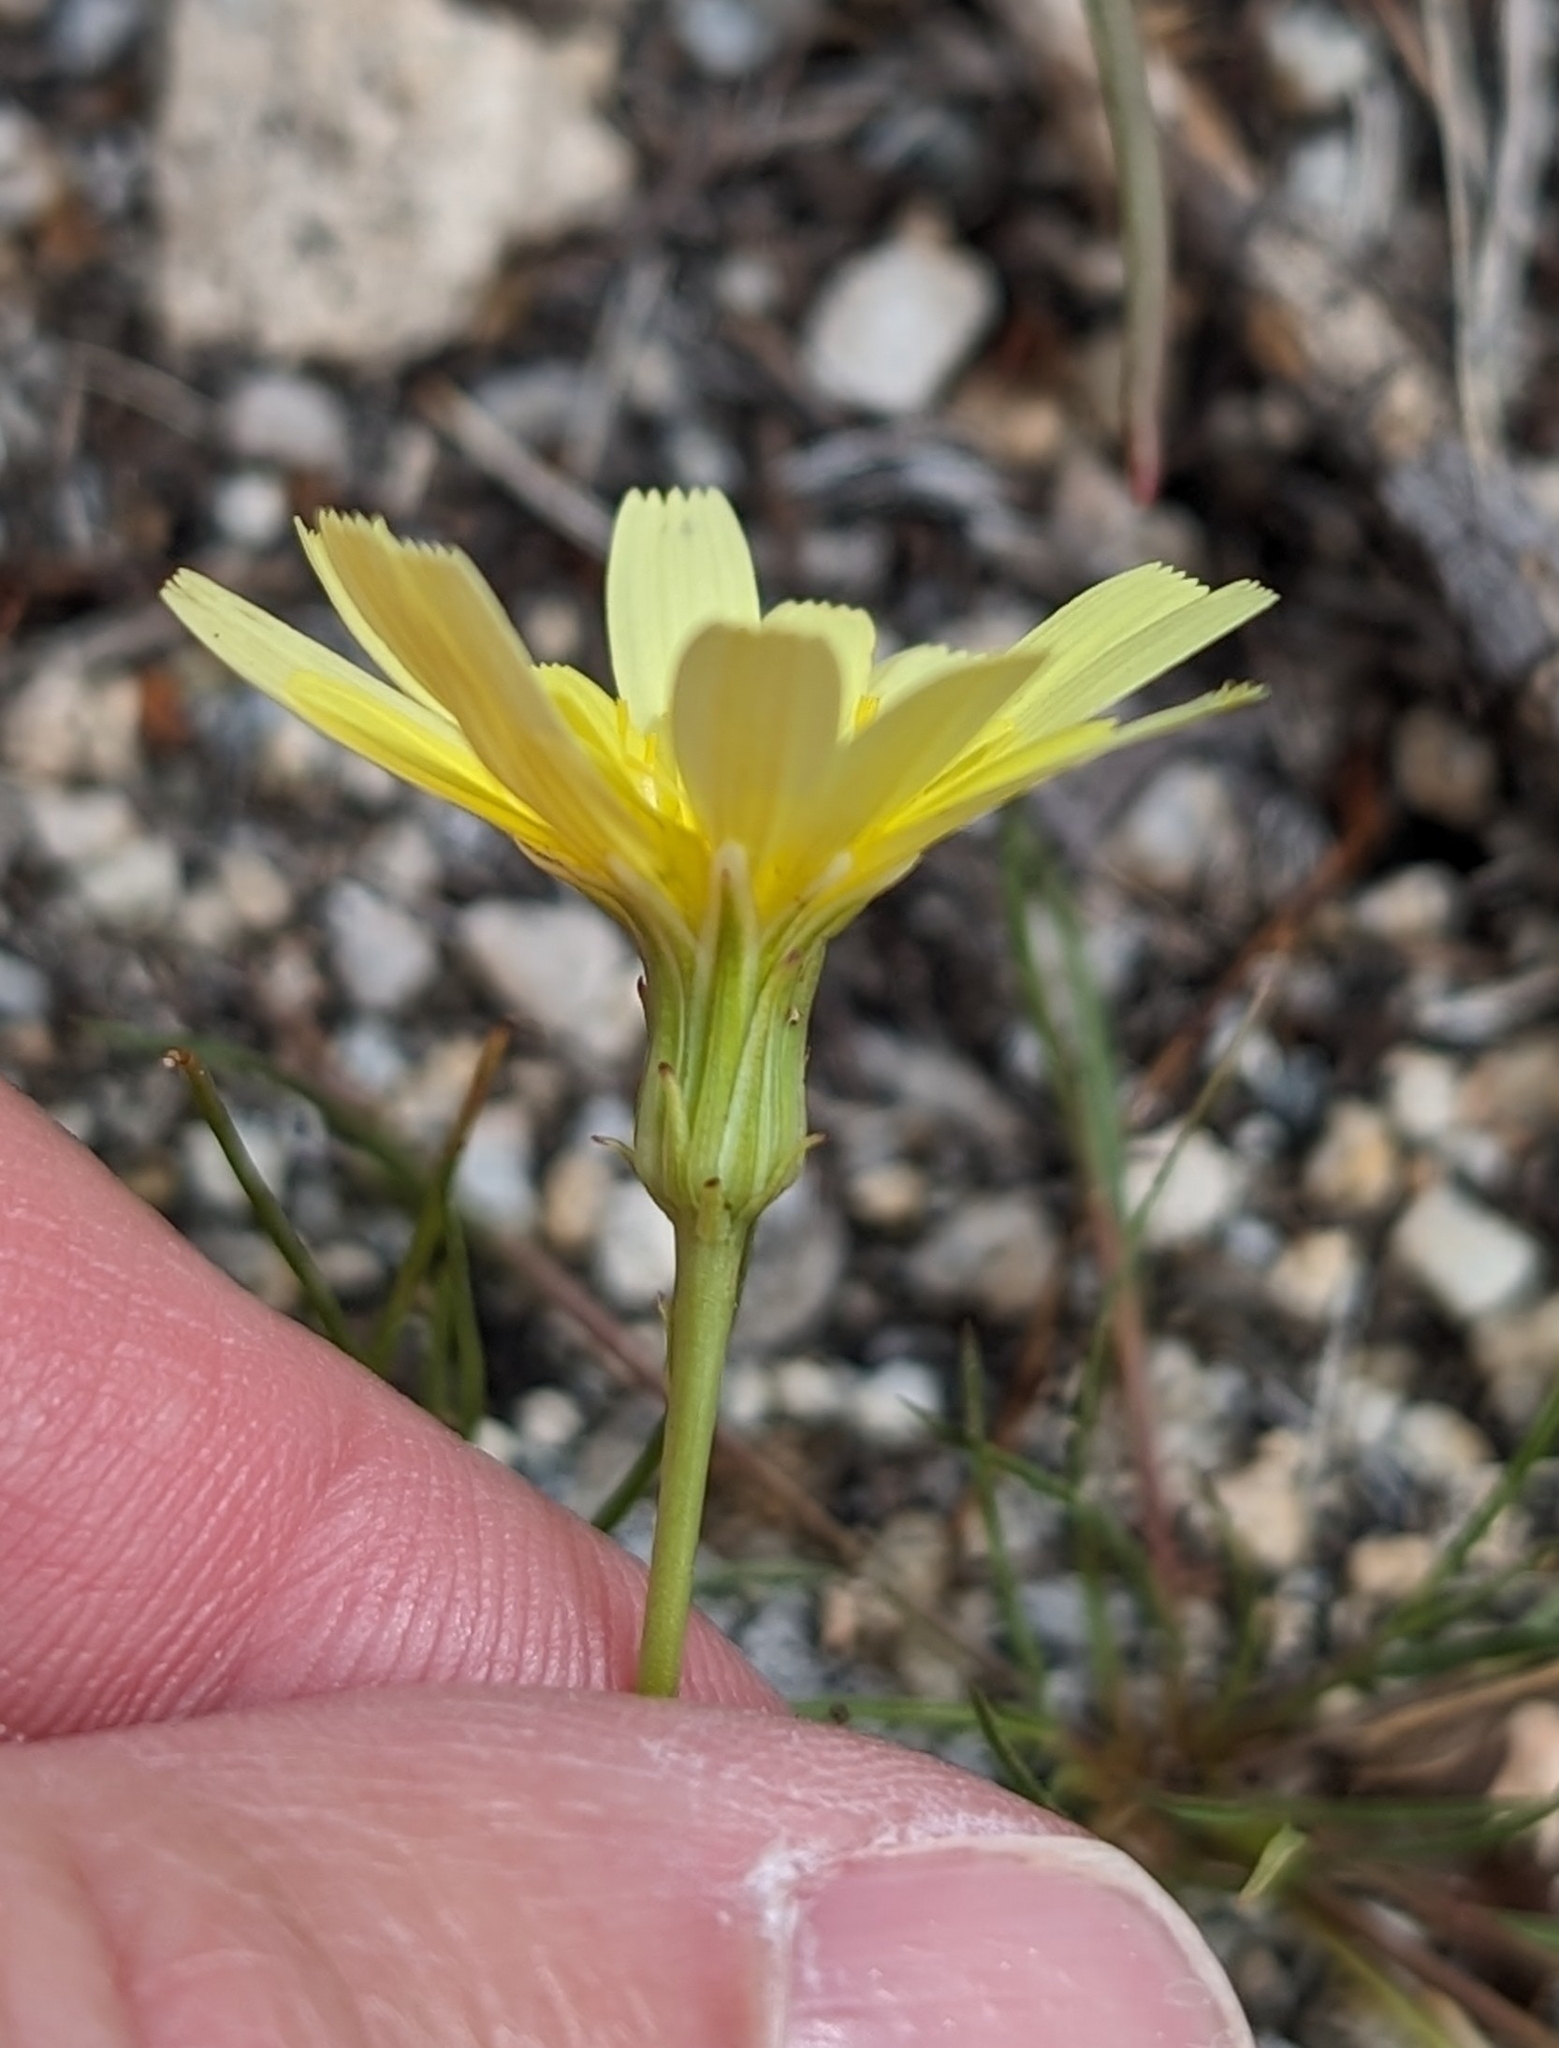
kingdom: Plantae
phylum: Tracheophyta
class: Magnoliopsida
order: Asterales
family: Asteraceae
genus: Malacothrix
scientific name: Malacothrix glabrata
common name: Smooth desert-dandelion
